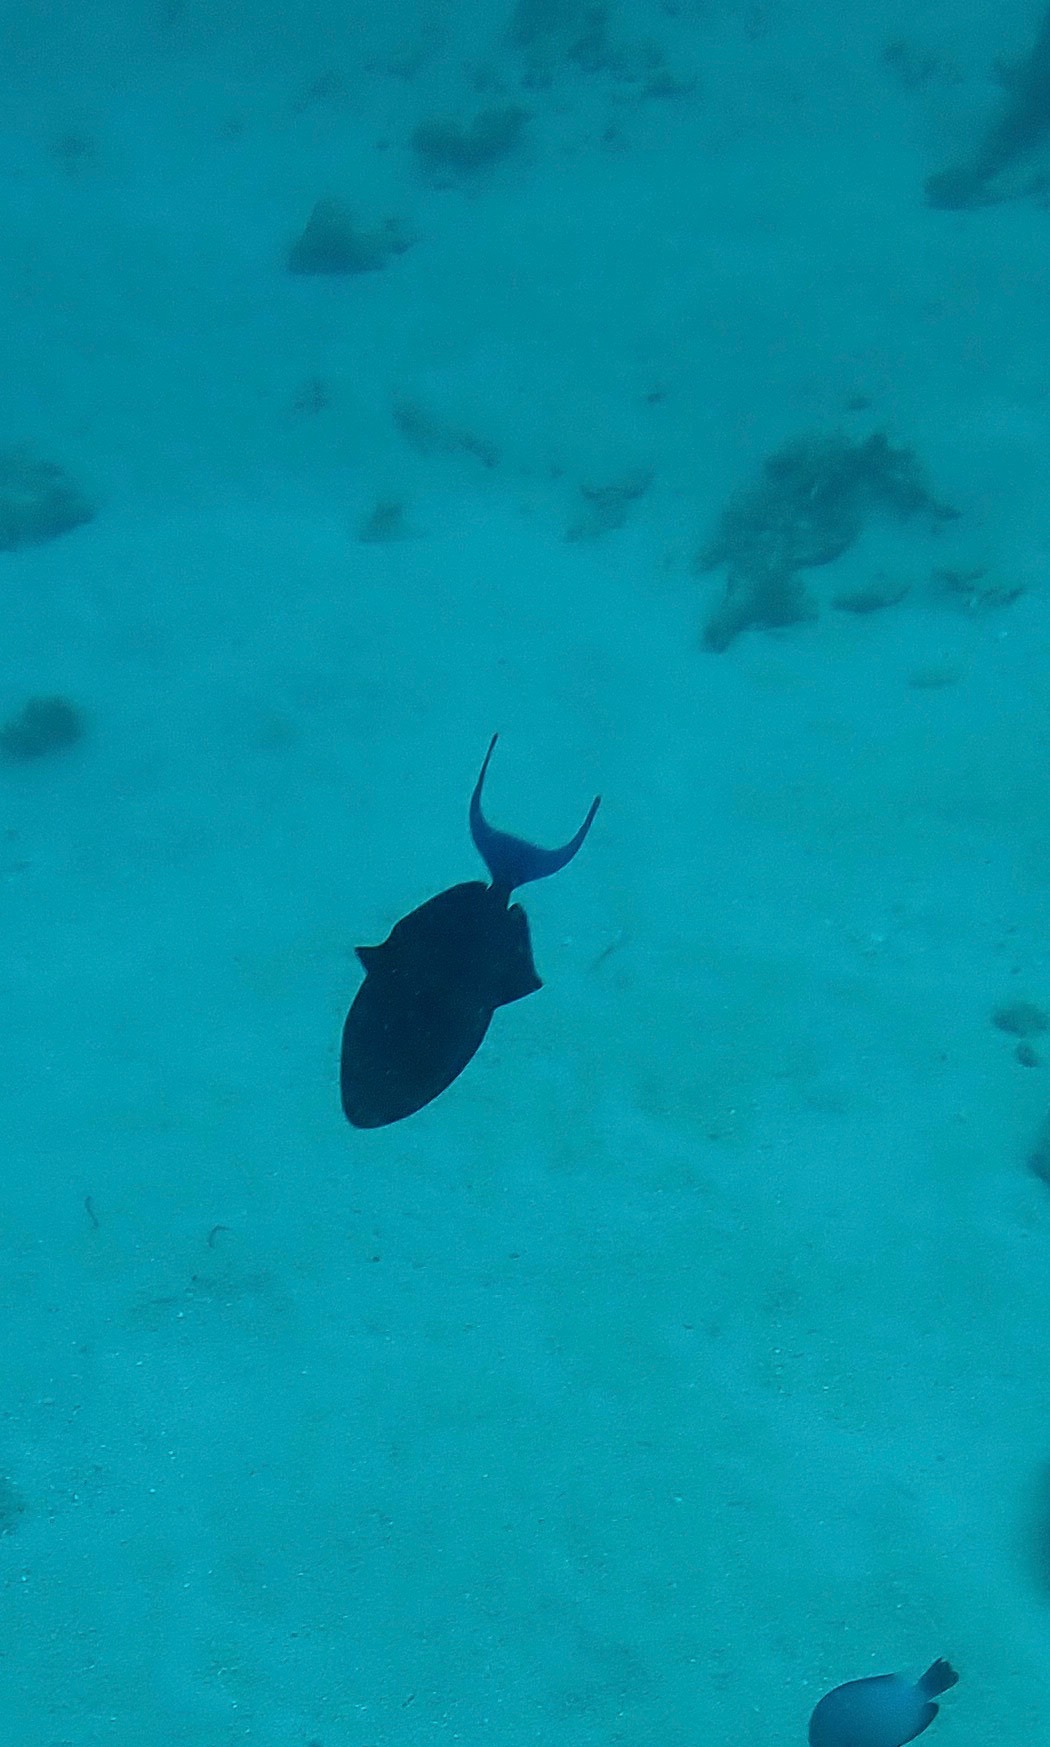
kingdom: Animalia
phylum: Chordata
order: Tetraodontiformes
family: Balistidae
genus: Odonus
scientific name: Odonus niger
